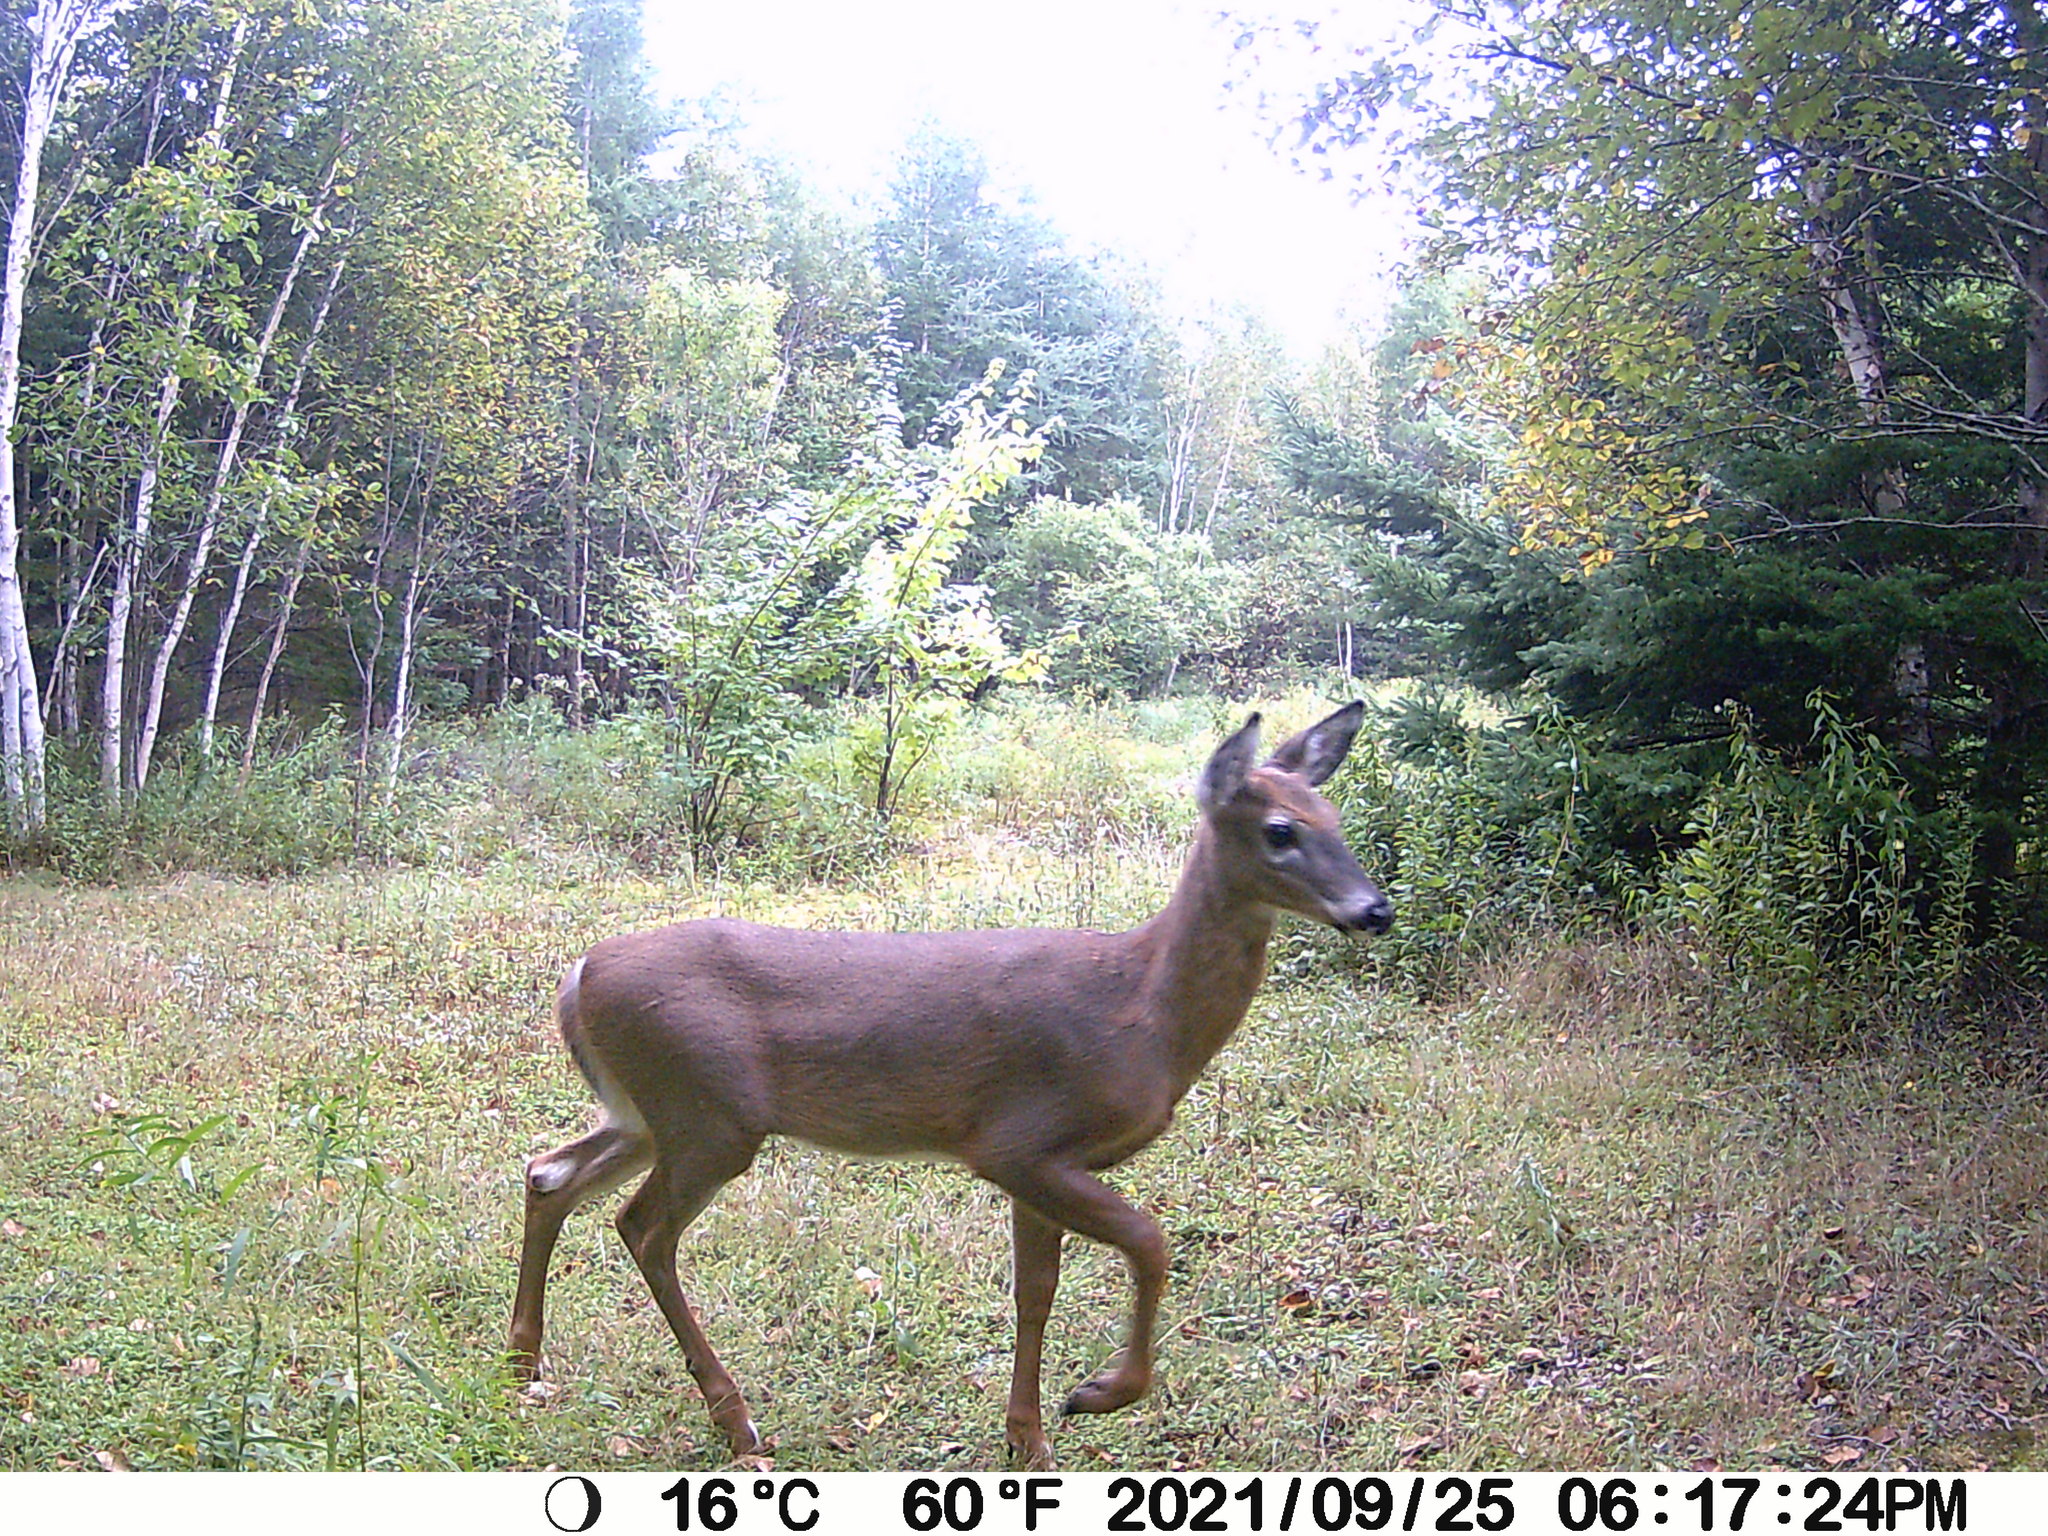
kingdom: Animalia
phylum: Chordata
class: Mammalia
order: Artiodactyla
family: Cervidae
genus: Odocoileus
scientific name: Odocoileus virginianus
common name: White-tailed deer
